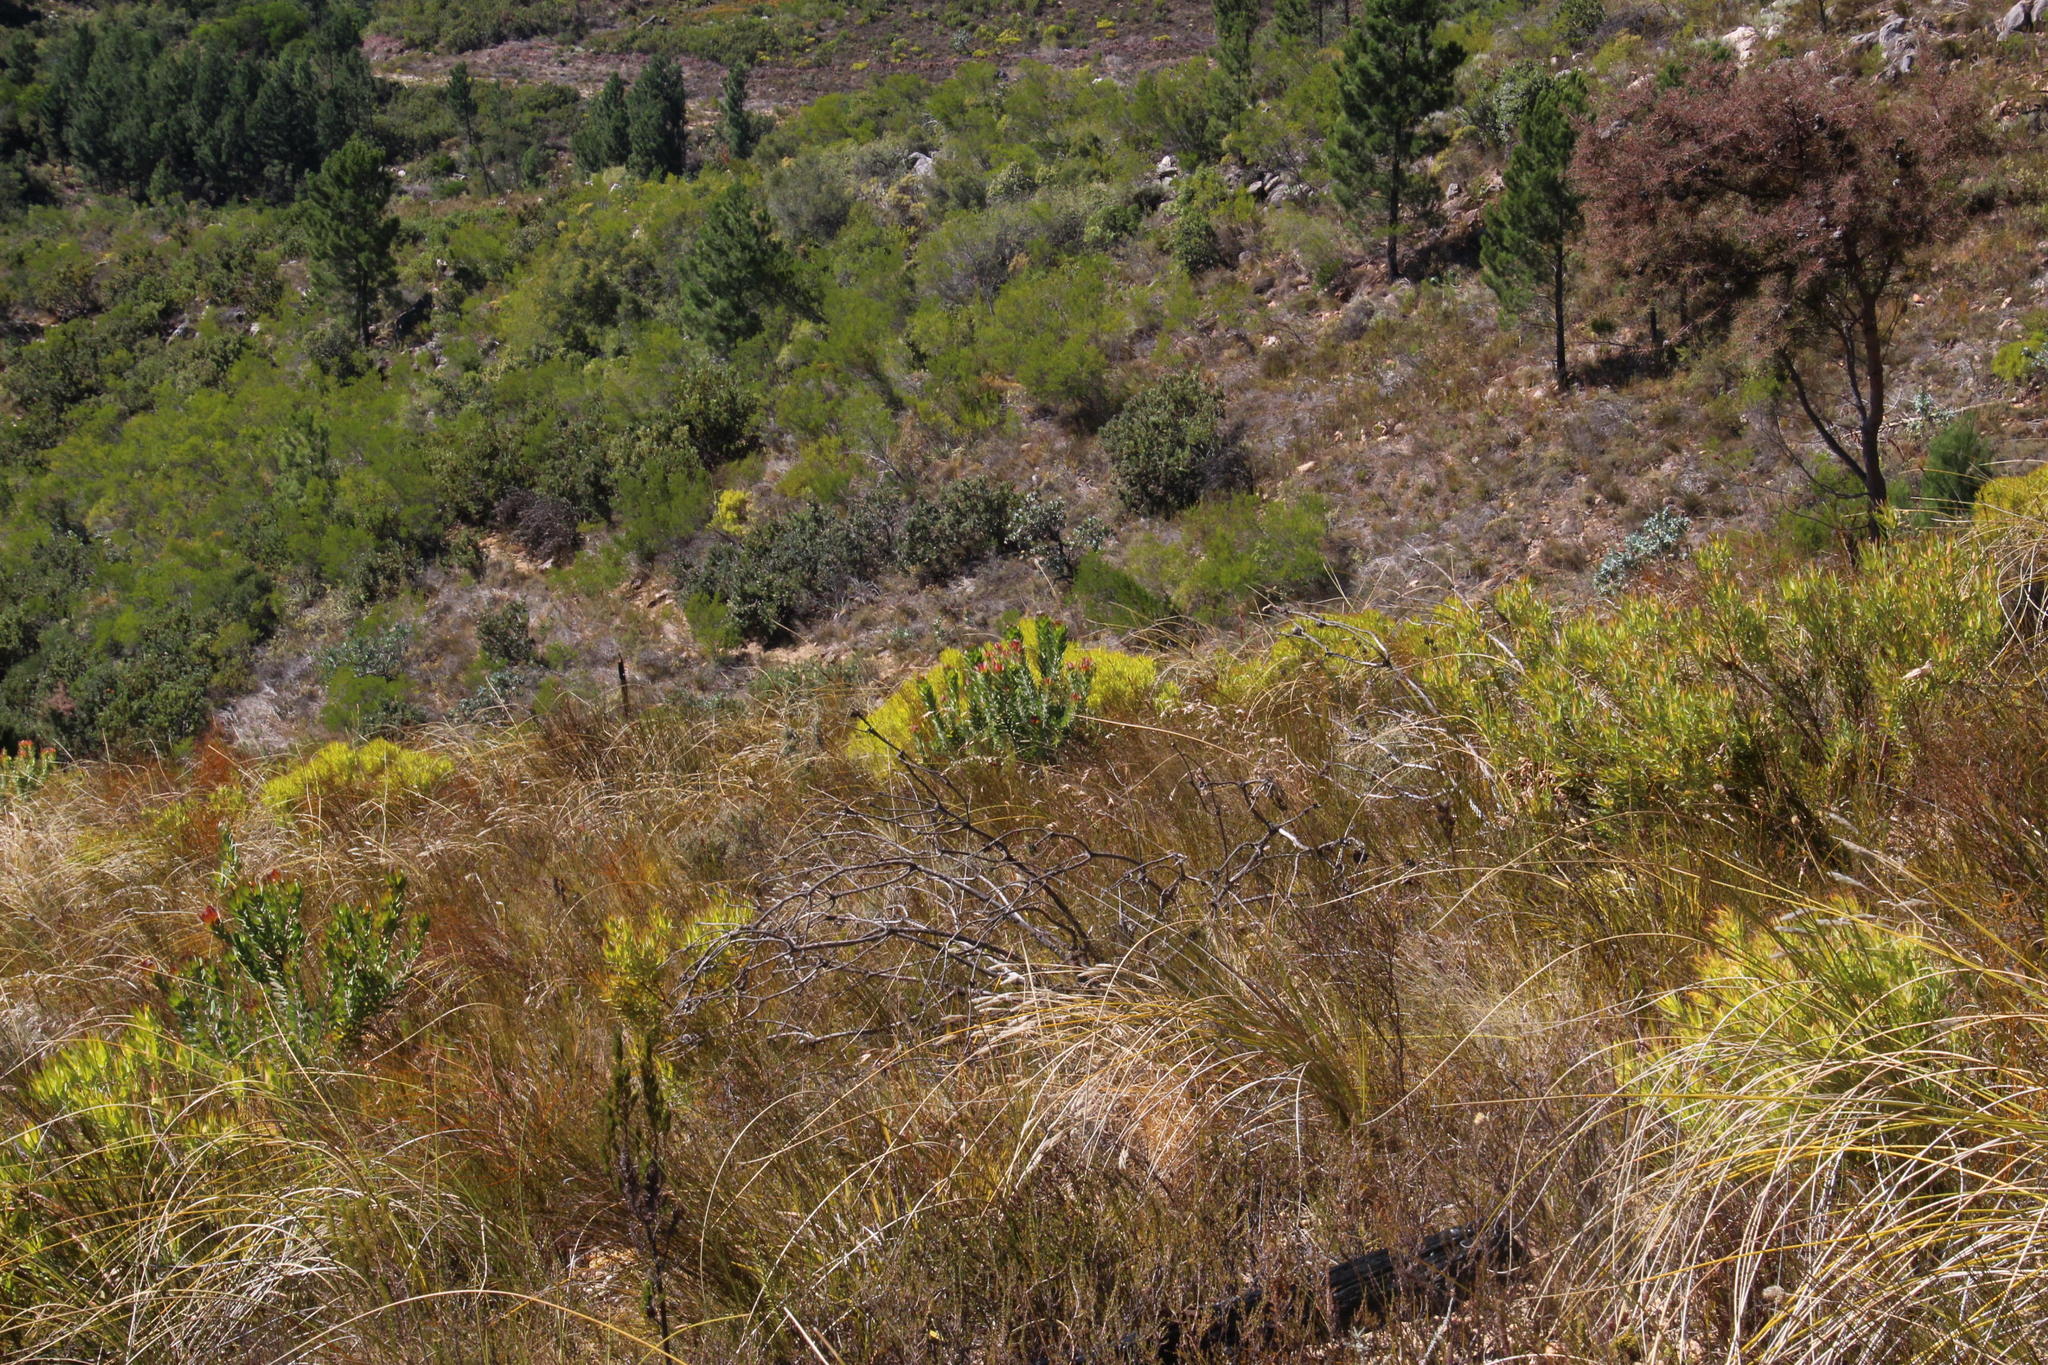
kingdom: Plantae
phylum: Tracheophyta
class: Magnoliopsida
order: Proteales
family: Proteaceae
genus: Leucadendron
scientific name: Leucadendron salignum
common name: Common sunshine conebush
